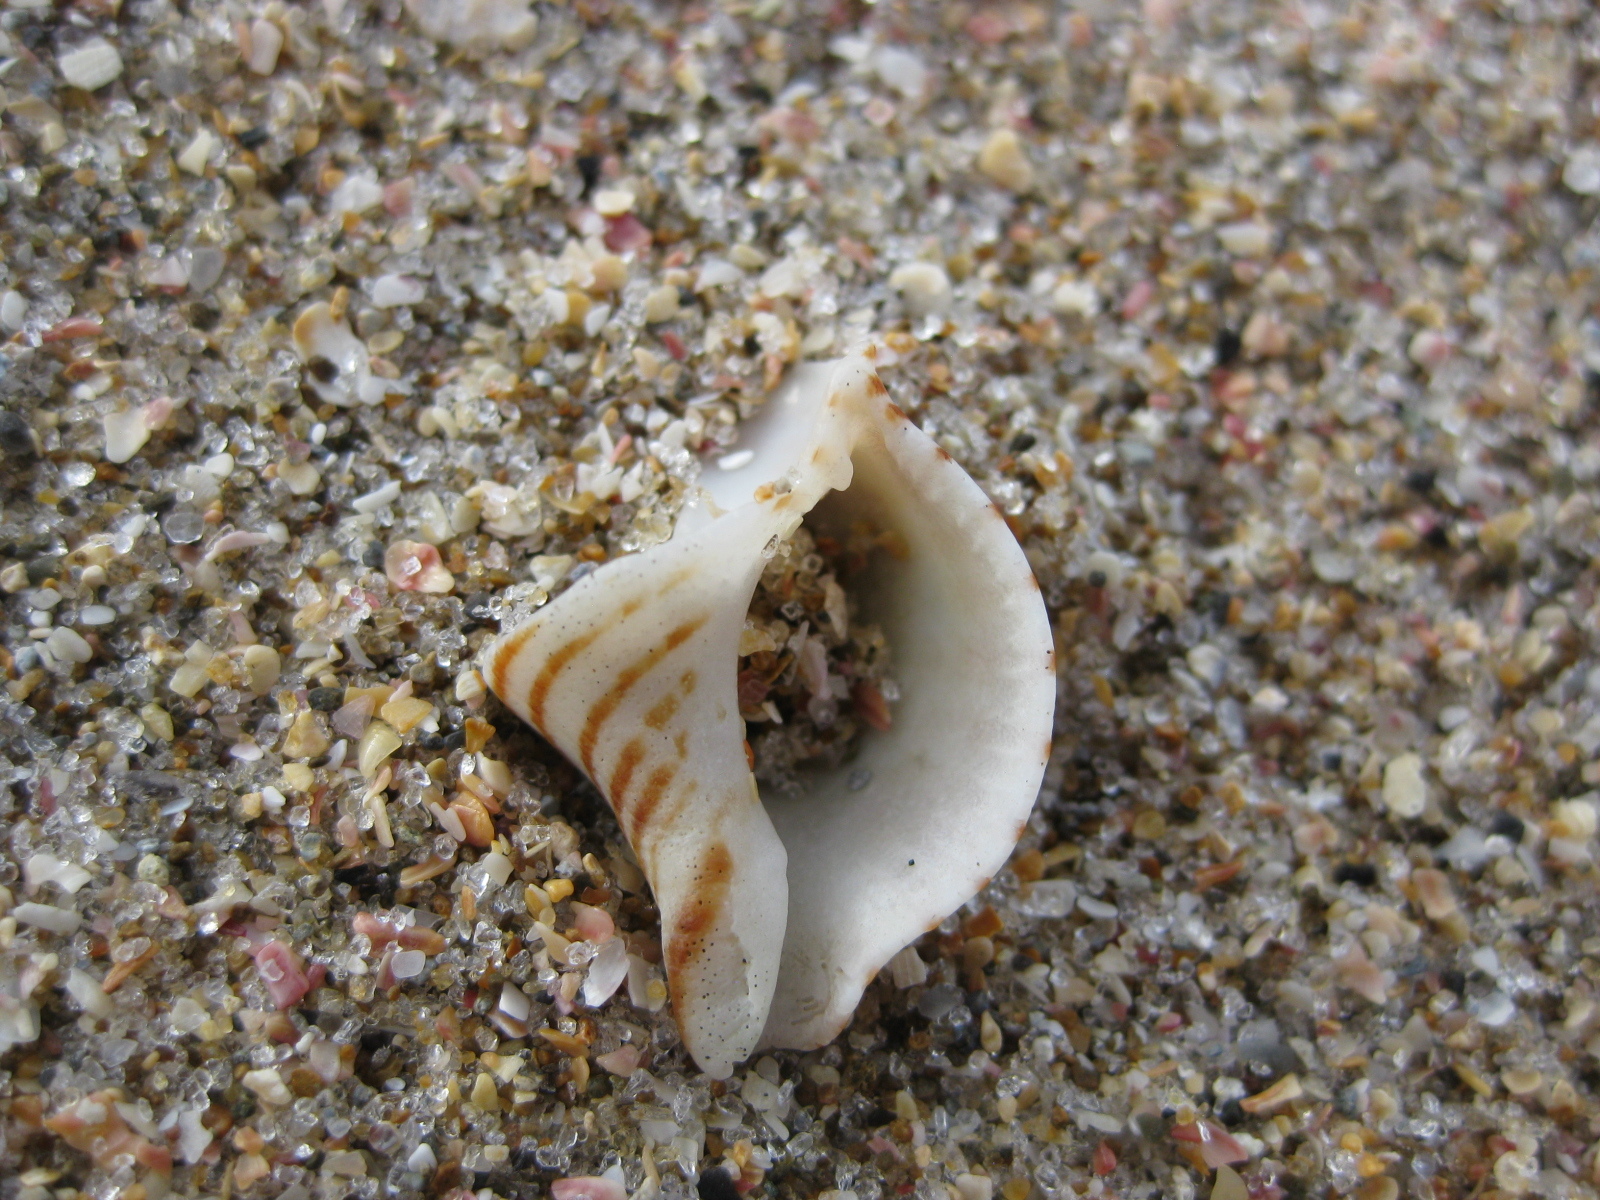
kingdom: Animalia
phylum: Mollusca
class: Gastropoda
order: Neogastropoda
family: Tudiclidae
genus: Buccinulum
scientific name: Buccinulum linea
